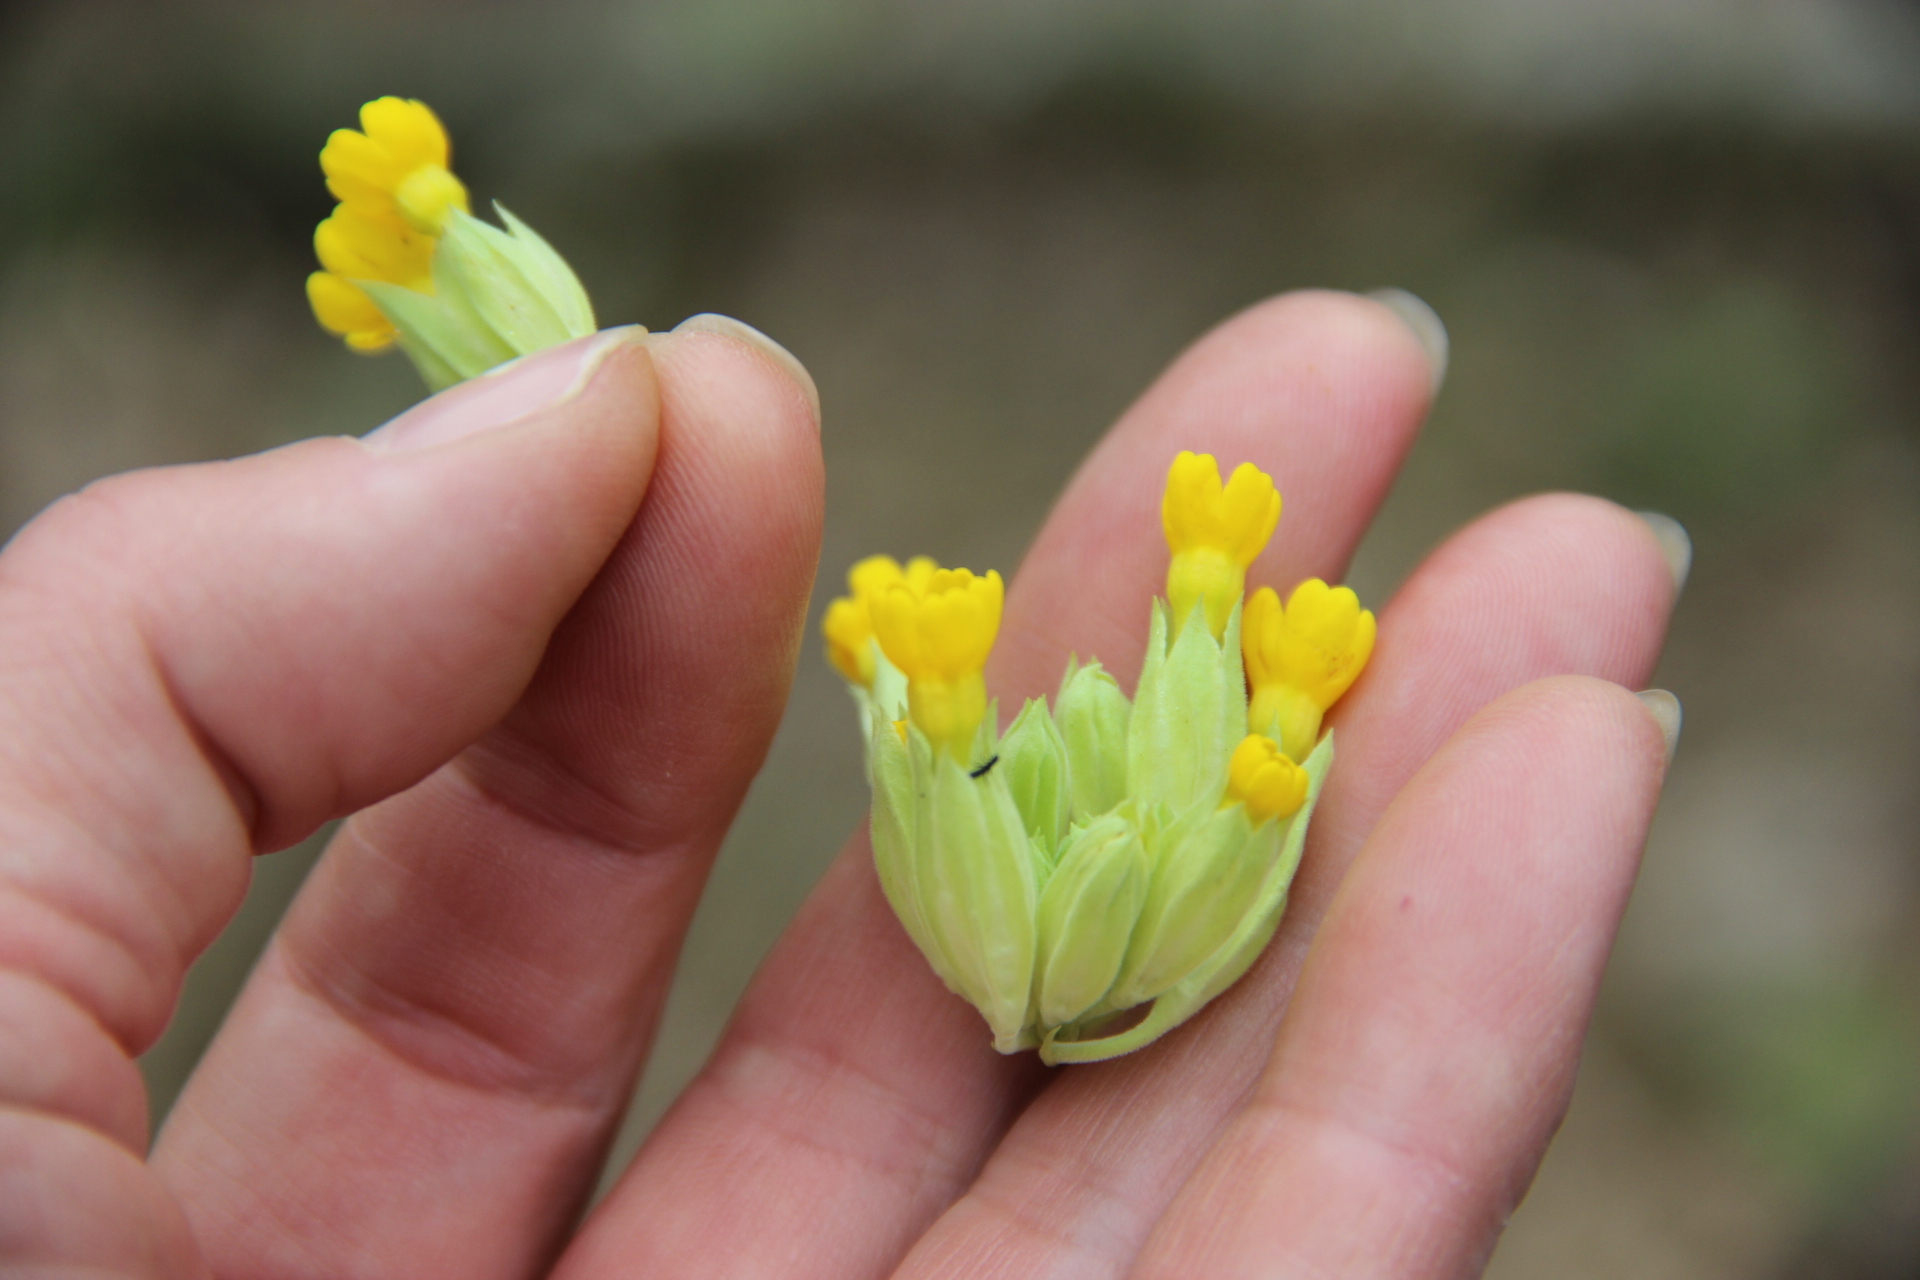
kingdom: Plantae
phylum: Tracheophyta
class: Magnoliopsida
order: Ericales
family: Primulaceae
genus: Primula
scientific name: Primula veris
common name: Cowslip
